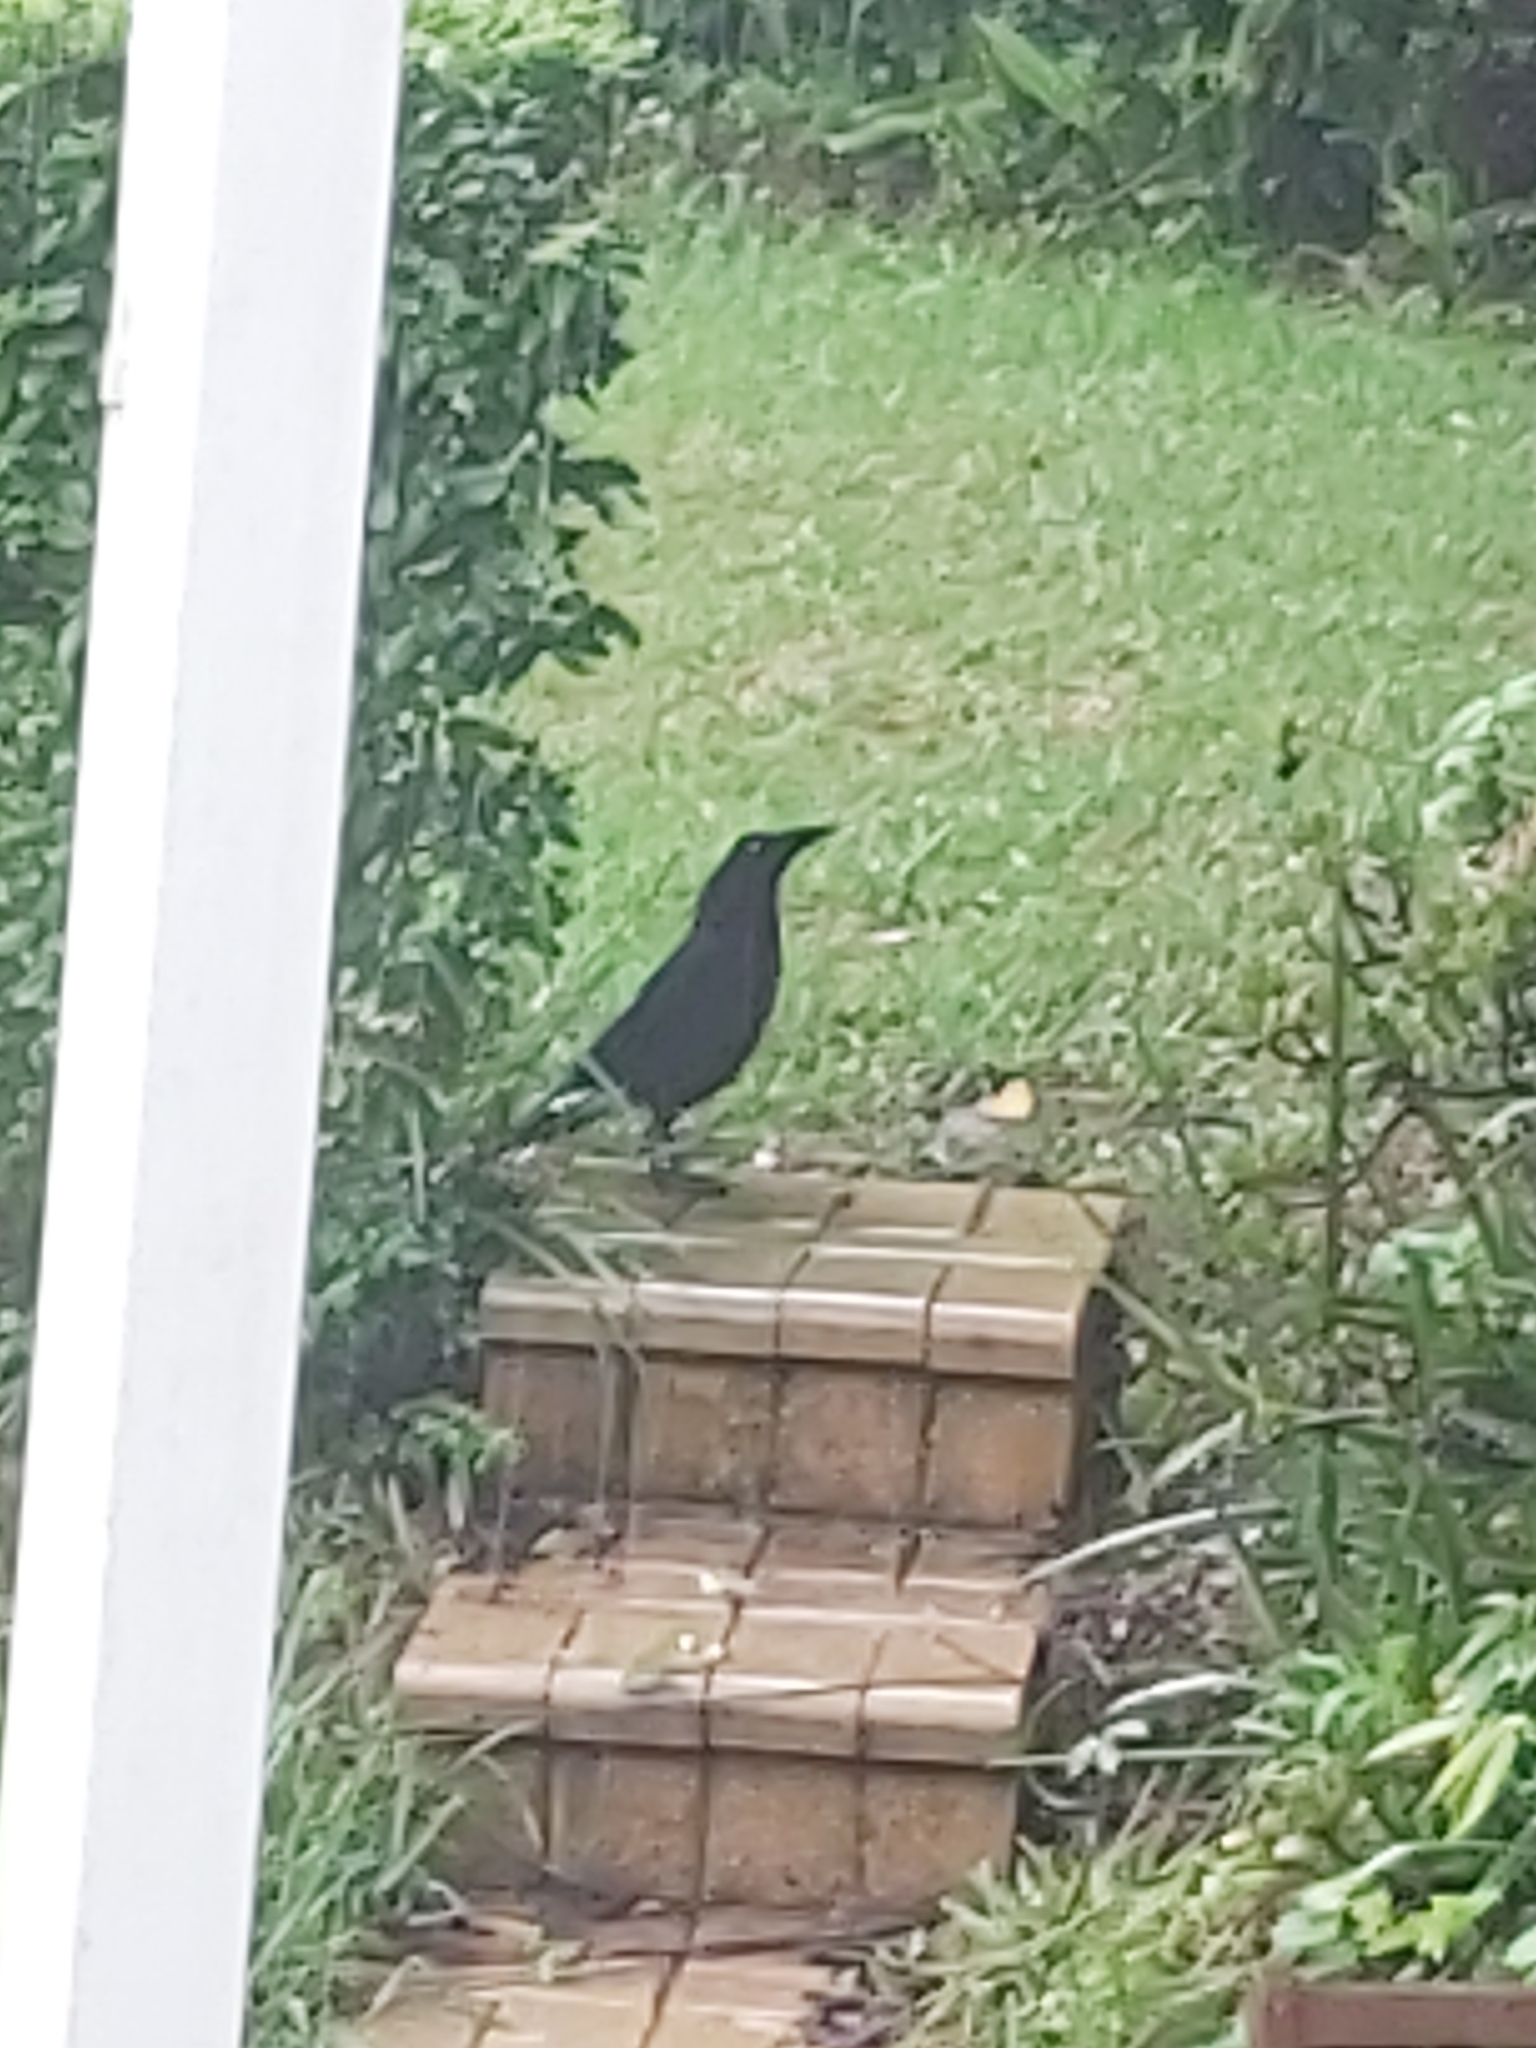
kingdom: Animalia
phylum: Chordata
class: Aves
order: Passeriformes
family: Cracticidae
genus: Strepera
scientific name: Strepera graculina
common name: Pied currawong
